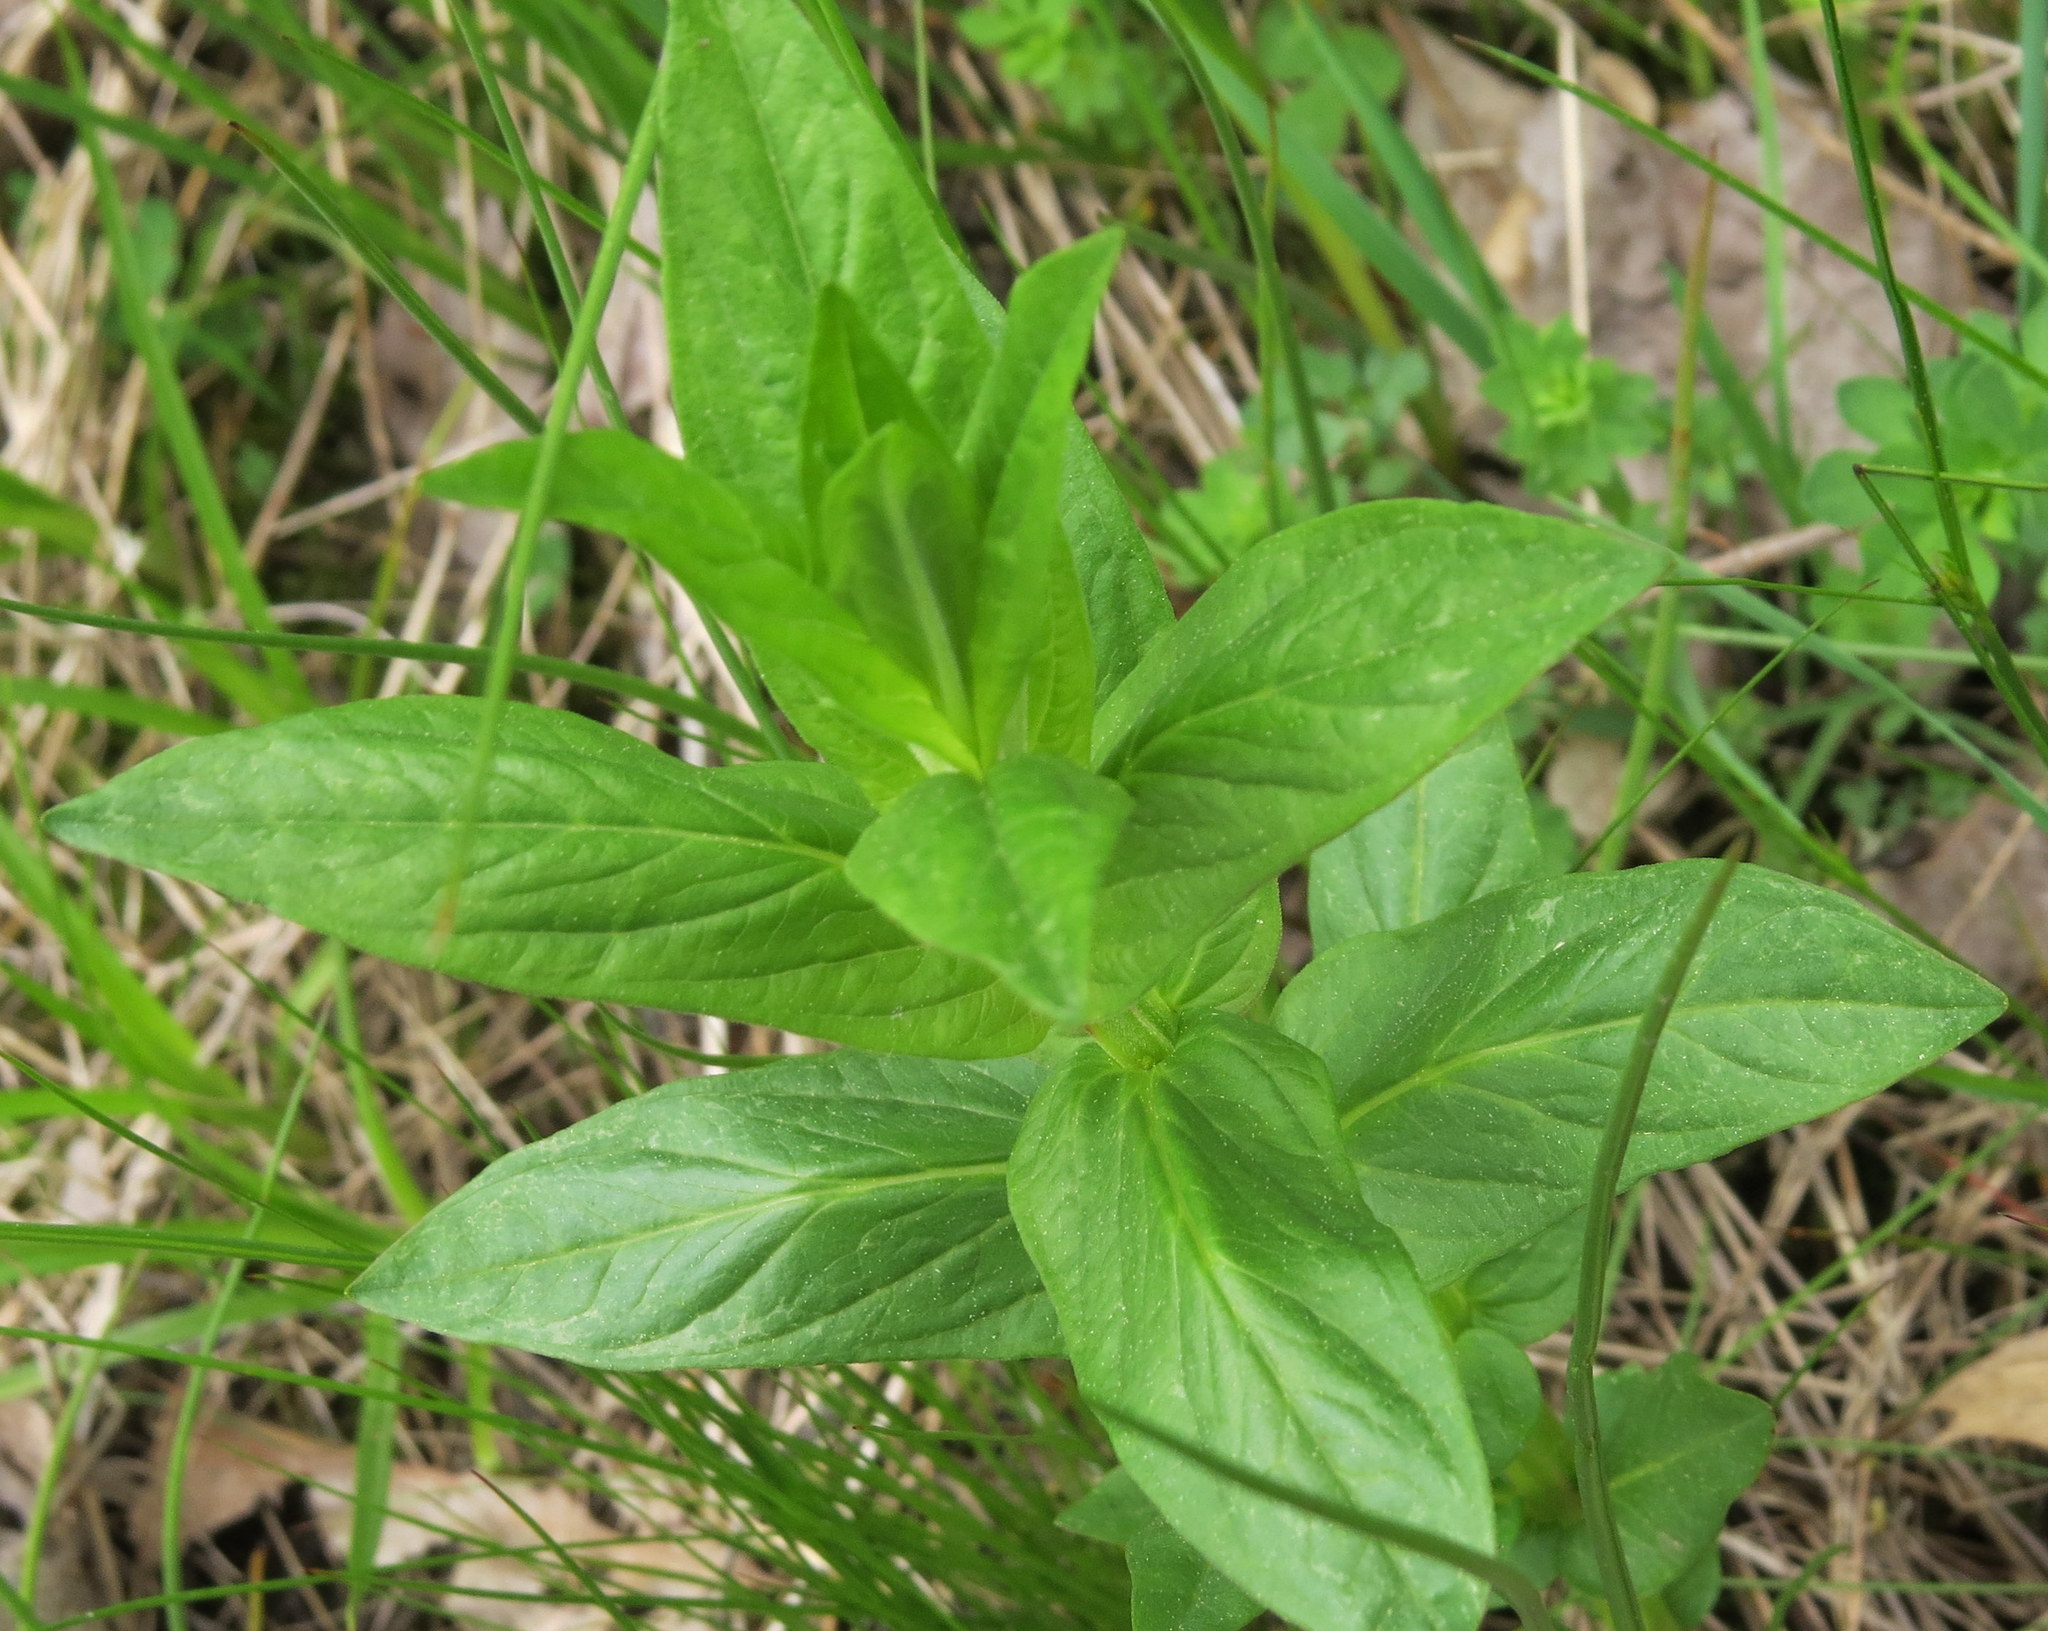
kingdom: Plantae
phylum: Tracheophyta
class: Magnoliopsida
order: Lamiales
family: Plantaginaceae
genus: Penstemon
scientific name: Penstemon digitalis
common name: Foxglove beardtongue
